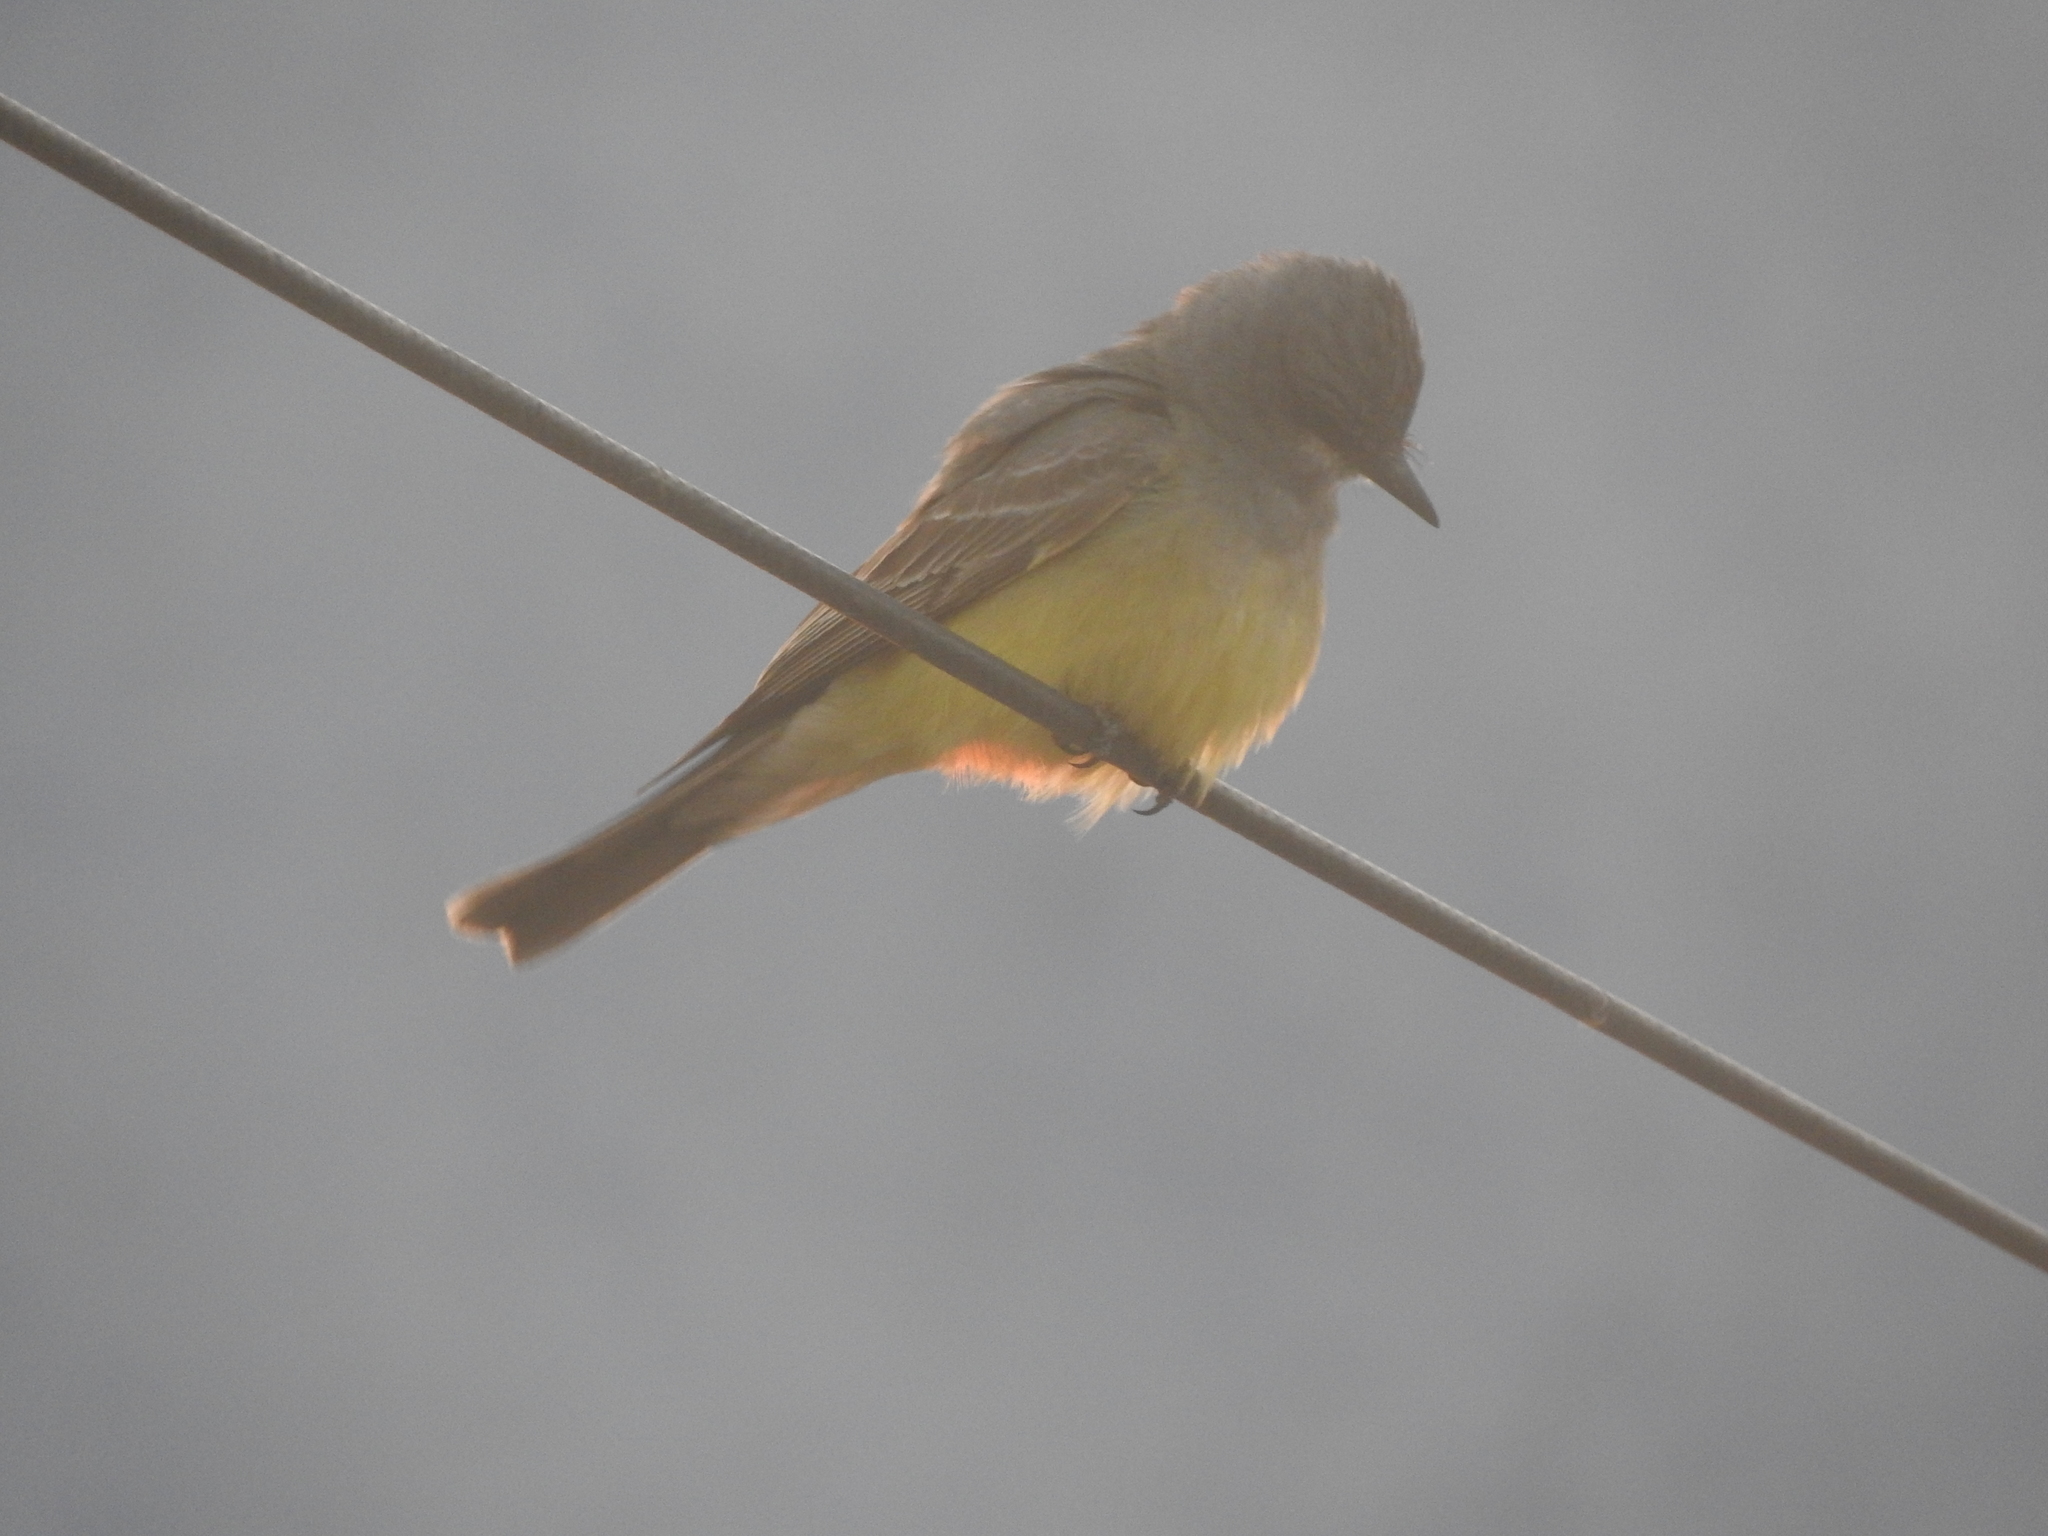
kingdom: Animalia
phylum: Chordata
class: Aves
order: Passeriformes
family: Tyrannidae
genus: Tyrannus
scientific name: Tyrannus vociferans
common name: Cassin's kingbird
